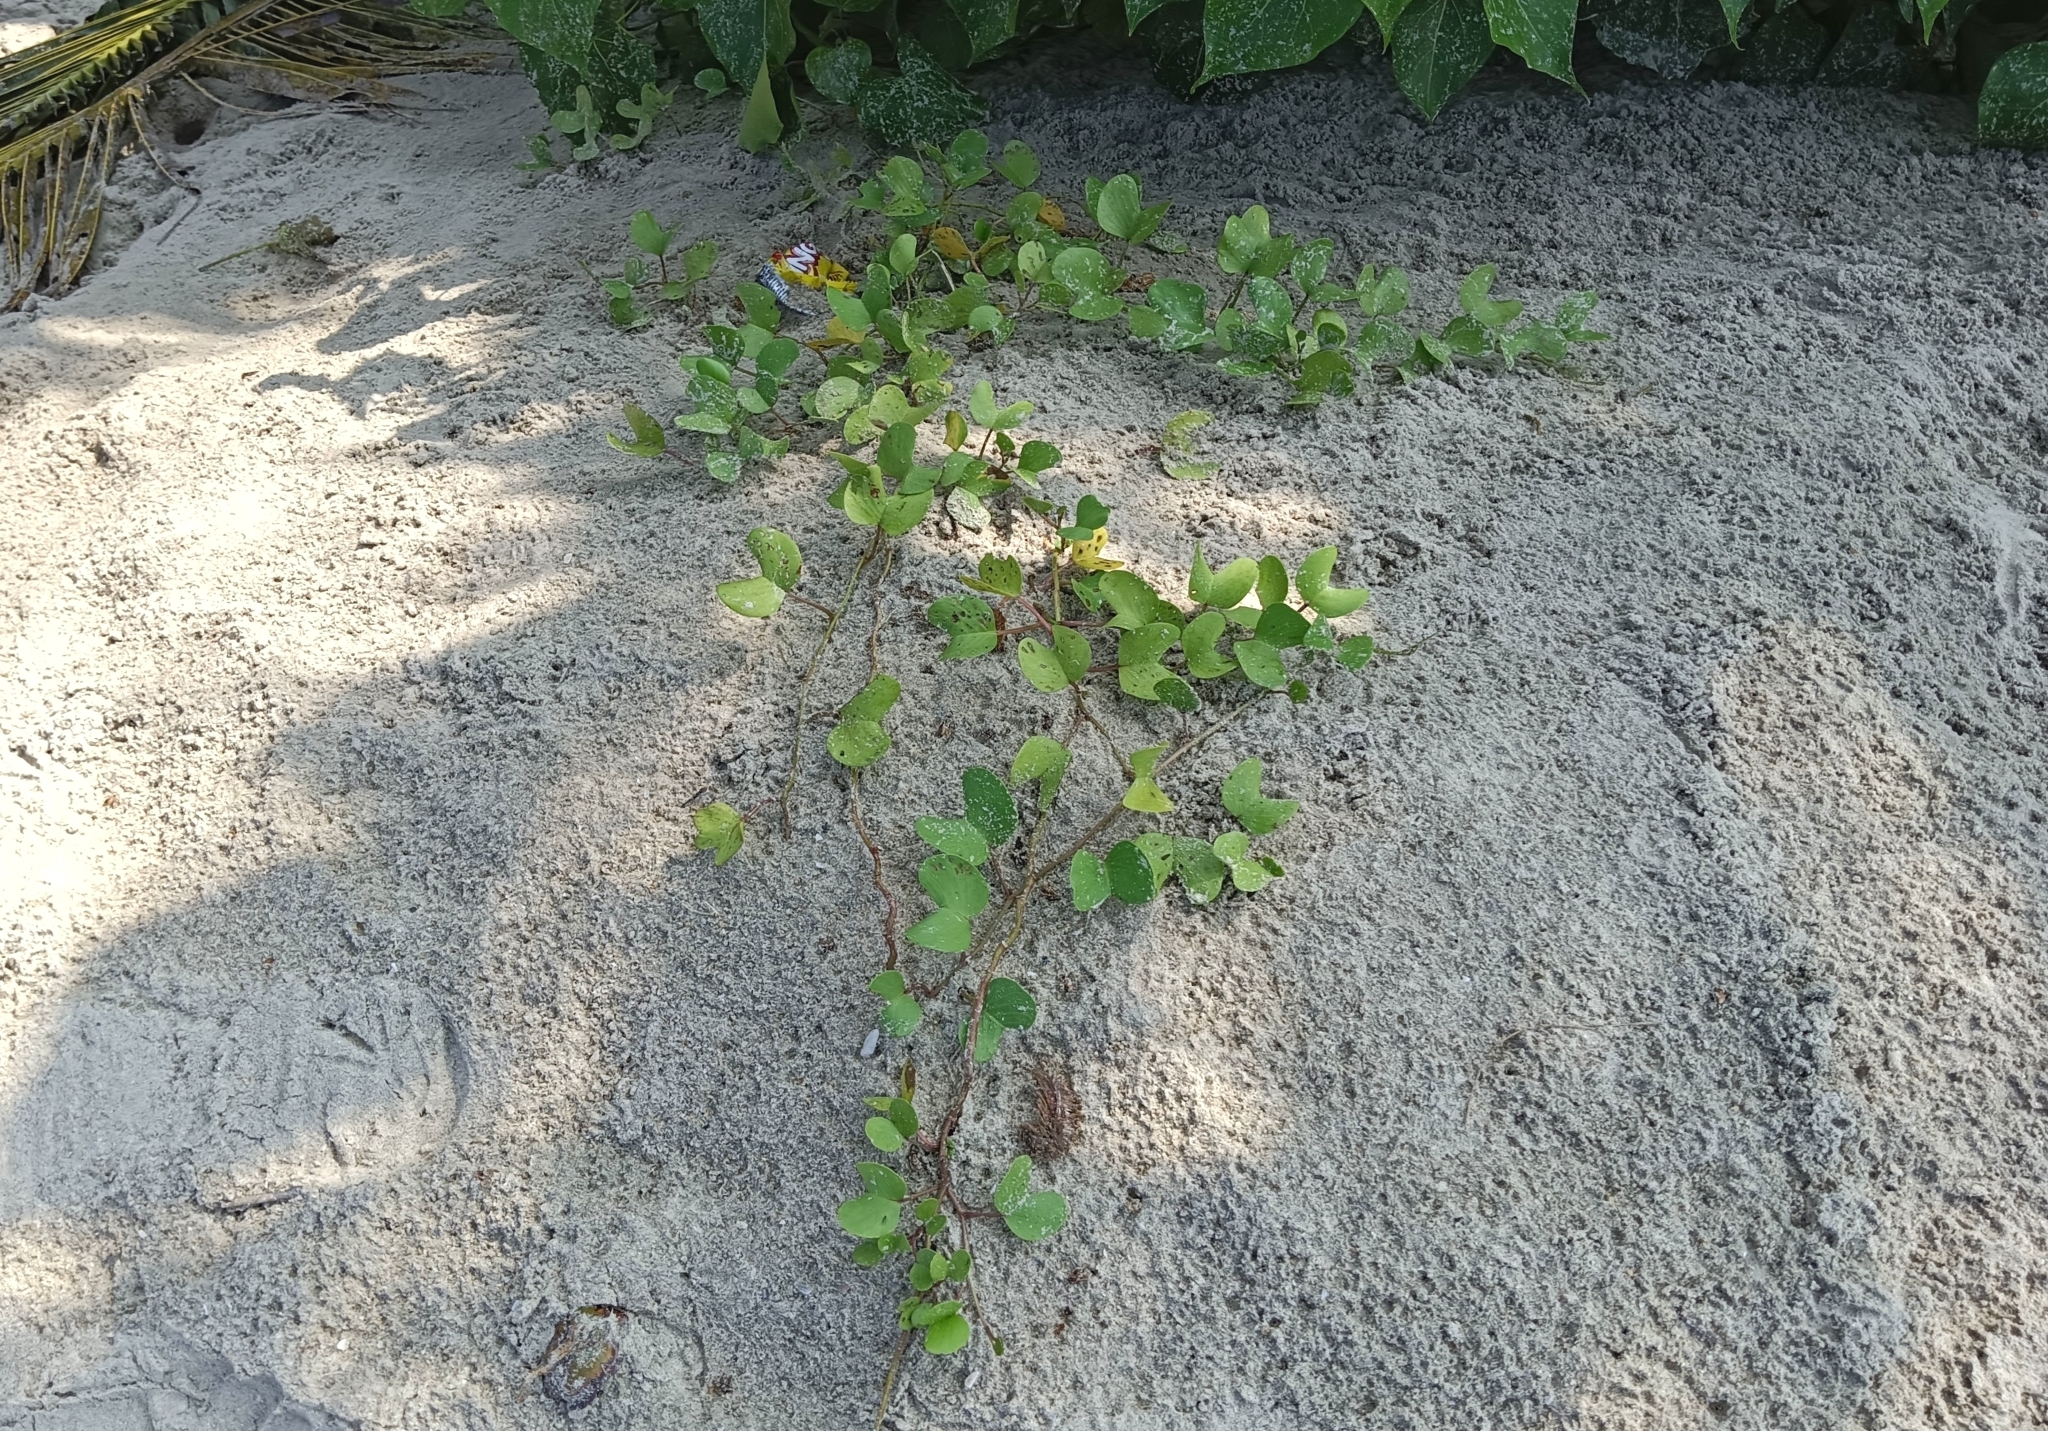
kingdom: Plantae
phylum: Tracheophyta
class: Magnoliopsida
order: Solanales
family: Convolvulaceae
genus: Ipomoea
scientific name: Ipomoea pes-caprae
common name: Beach morning glory
